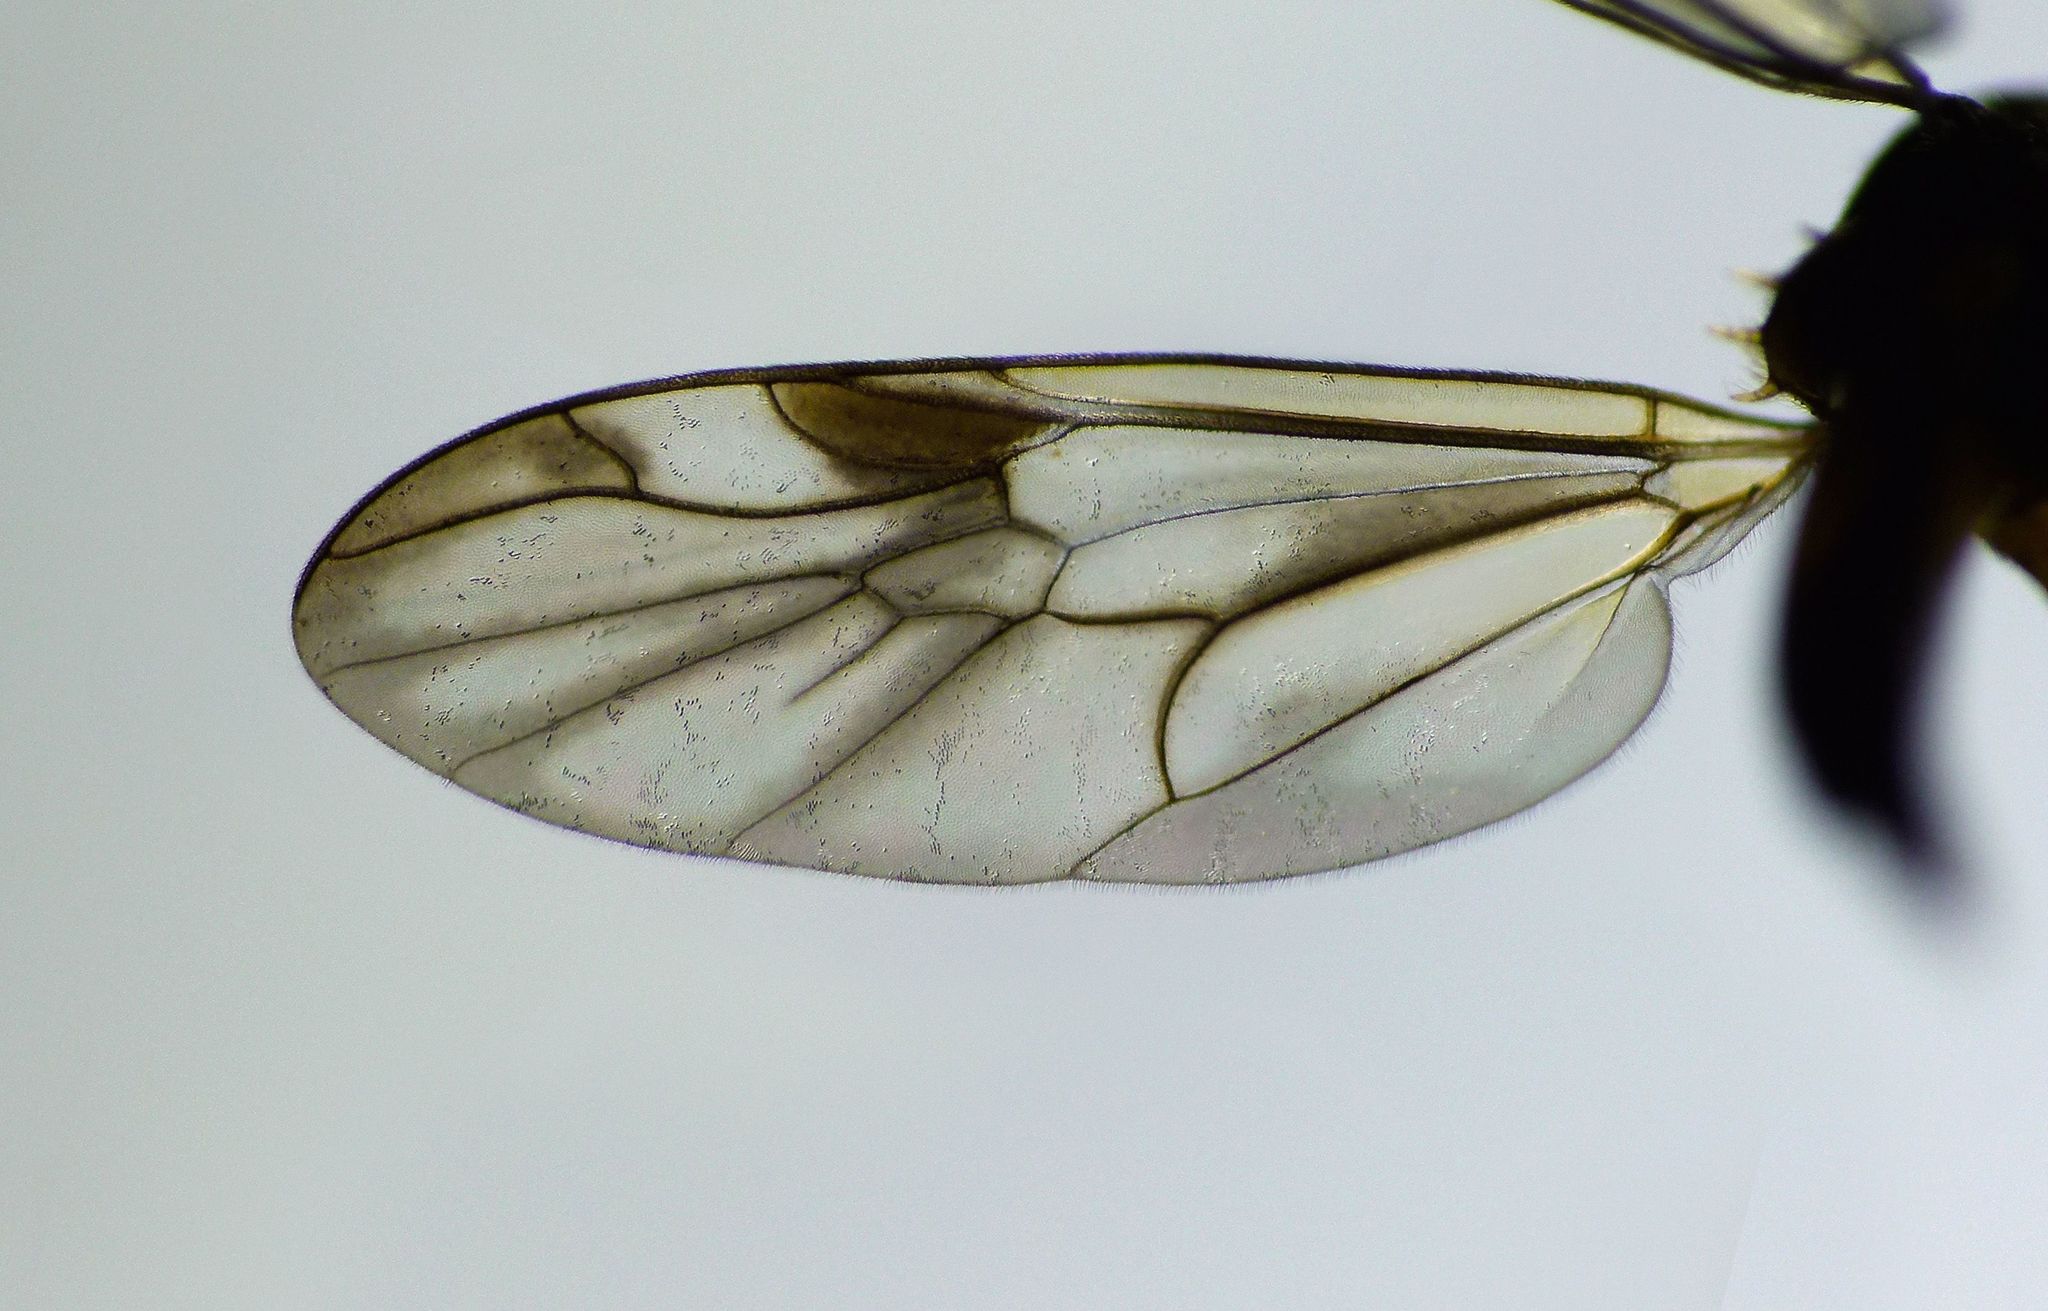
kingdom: Animalia
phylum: Arthropoda
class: Insecta
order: Diptera
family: Stratiomyidae
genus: Benhamyia
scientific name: Benhamyia hoheria
